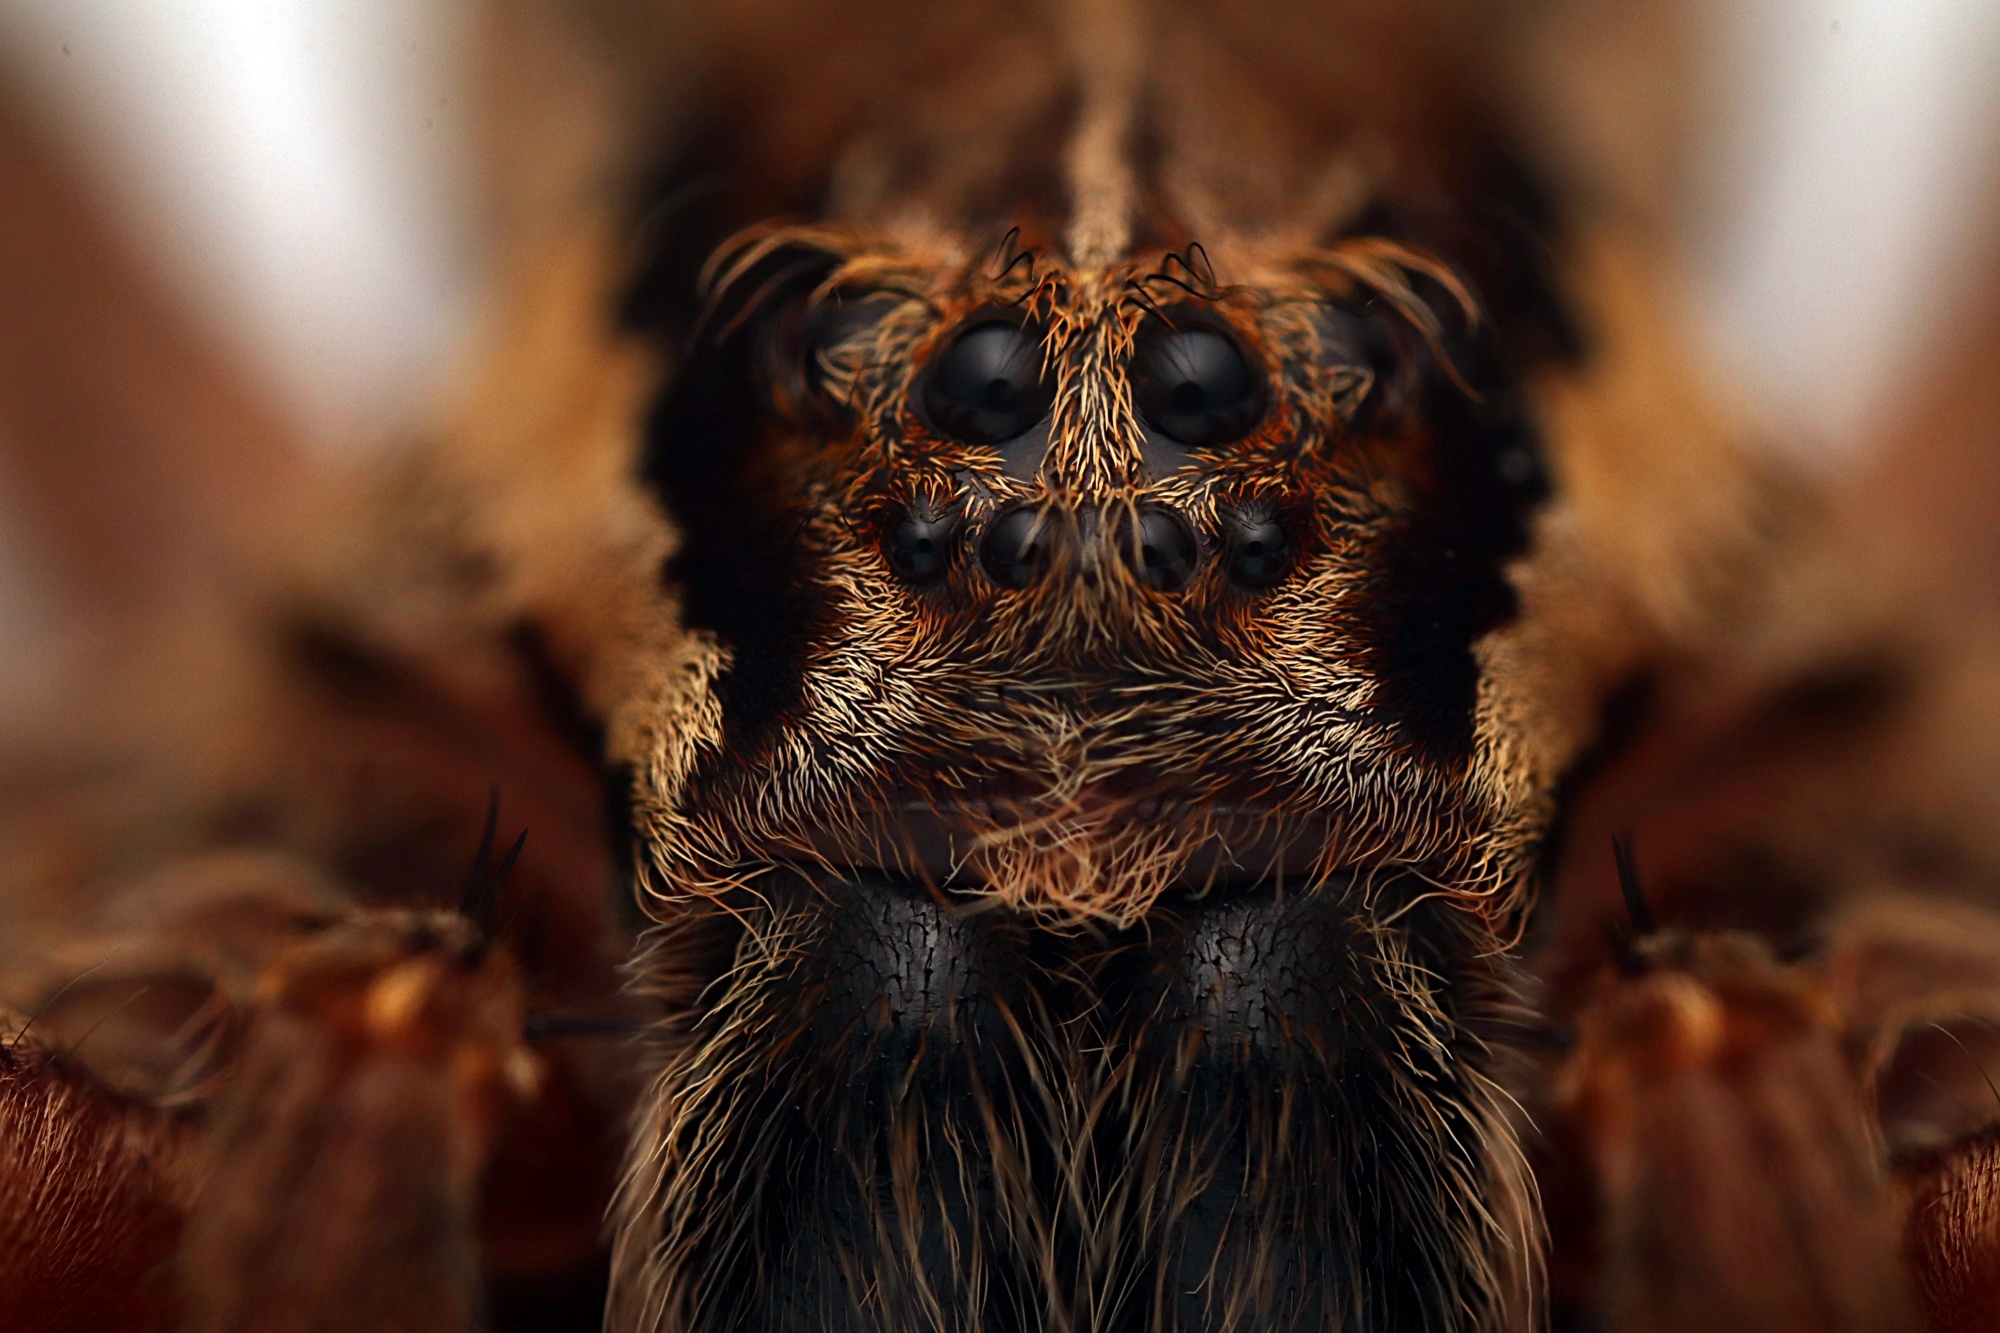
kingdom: Animalia
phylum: Arthropoda
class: Arachnida
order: Araneae
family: Pisauridae
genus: Dolomedes
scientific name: Dolomedes minor
